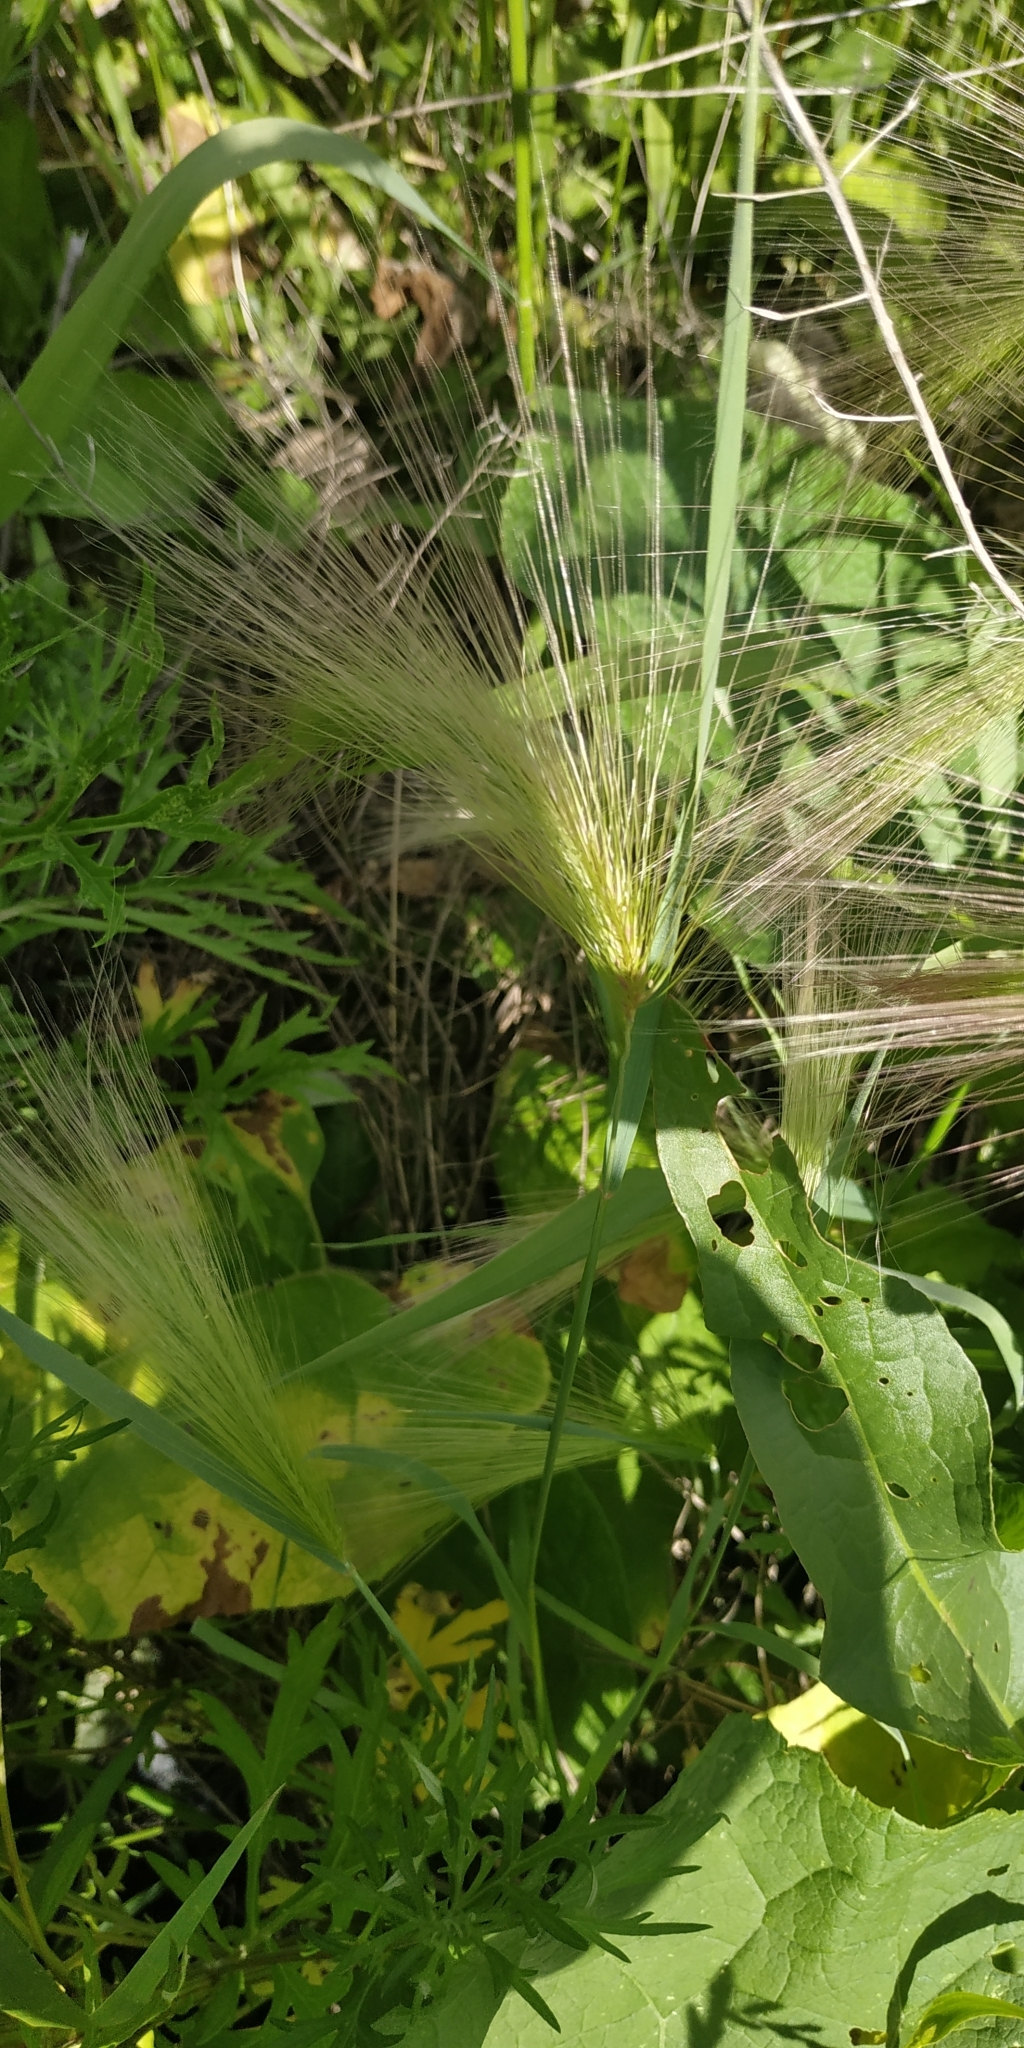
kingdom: Plantae
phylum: Tracheophyta
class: Liliopsida
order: Poales
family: Poaceae
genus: Hordeum
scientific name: Hordeum jubatum
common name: Foxtail barley
